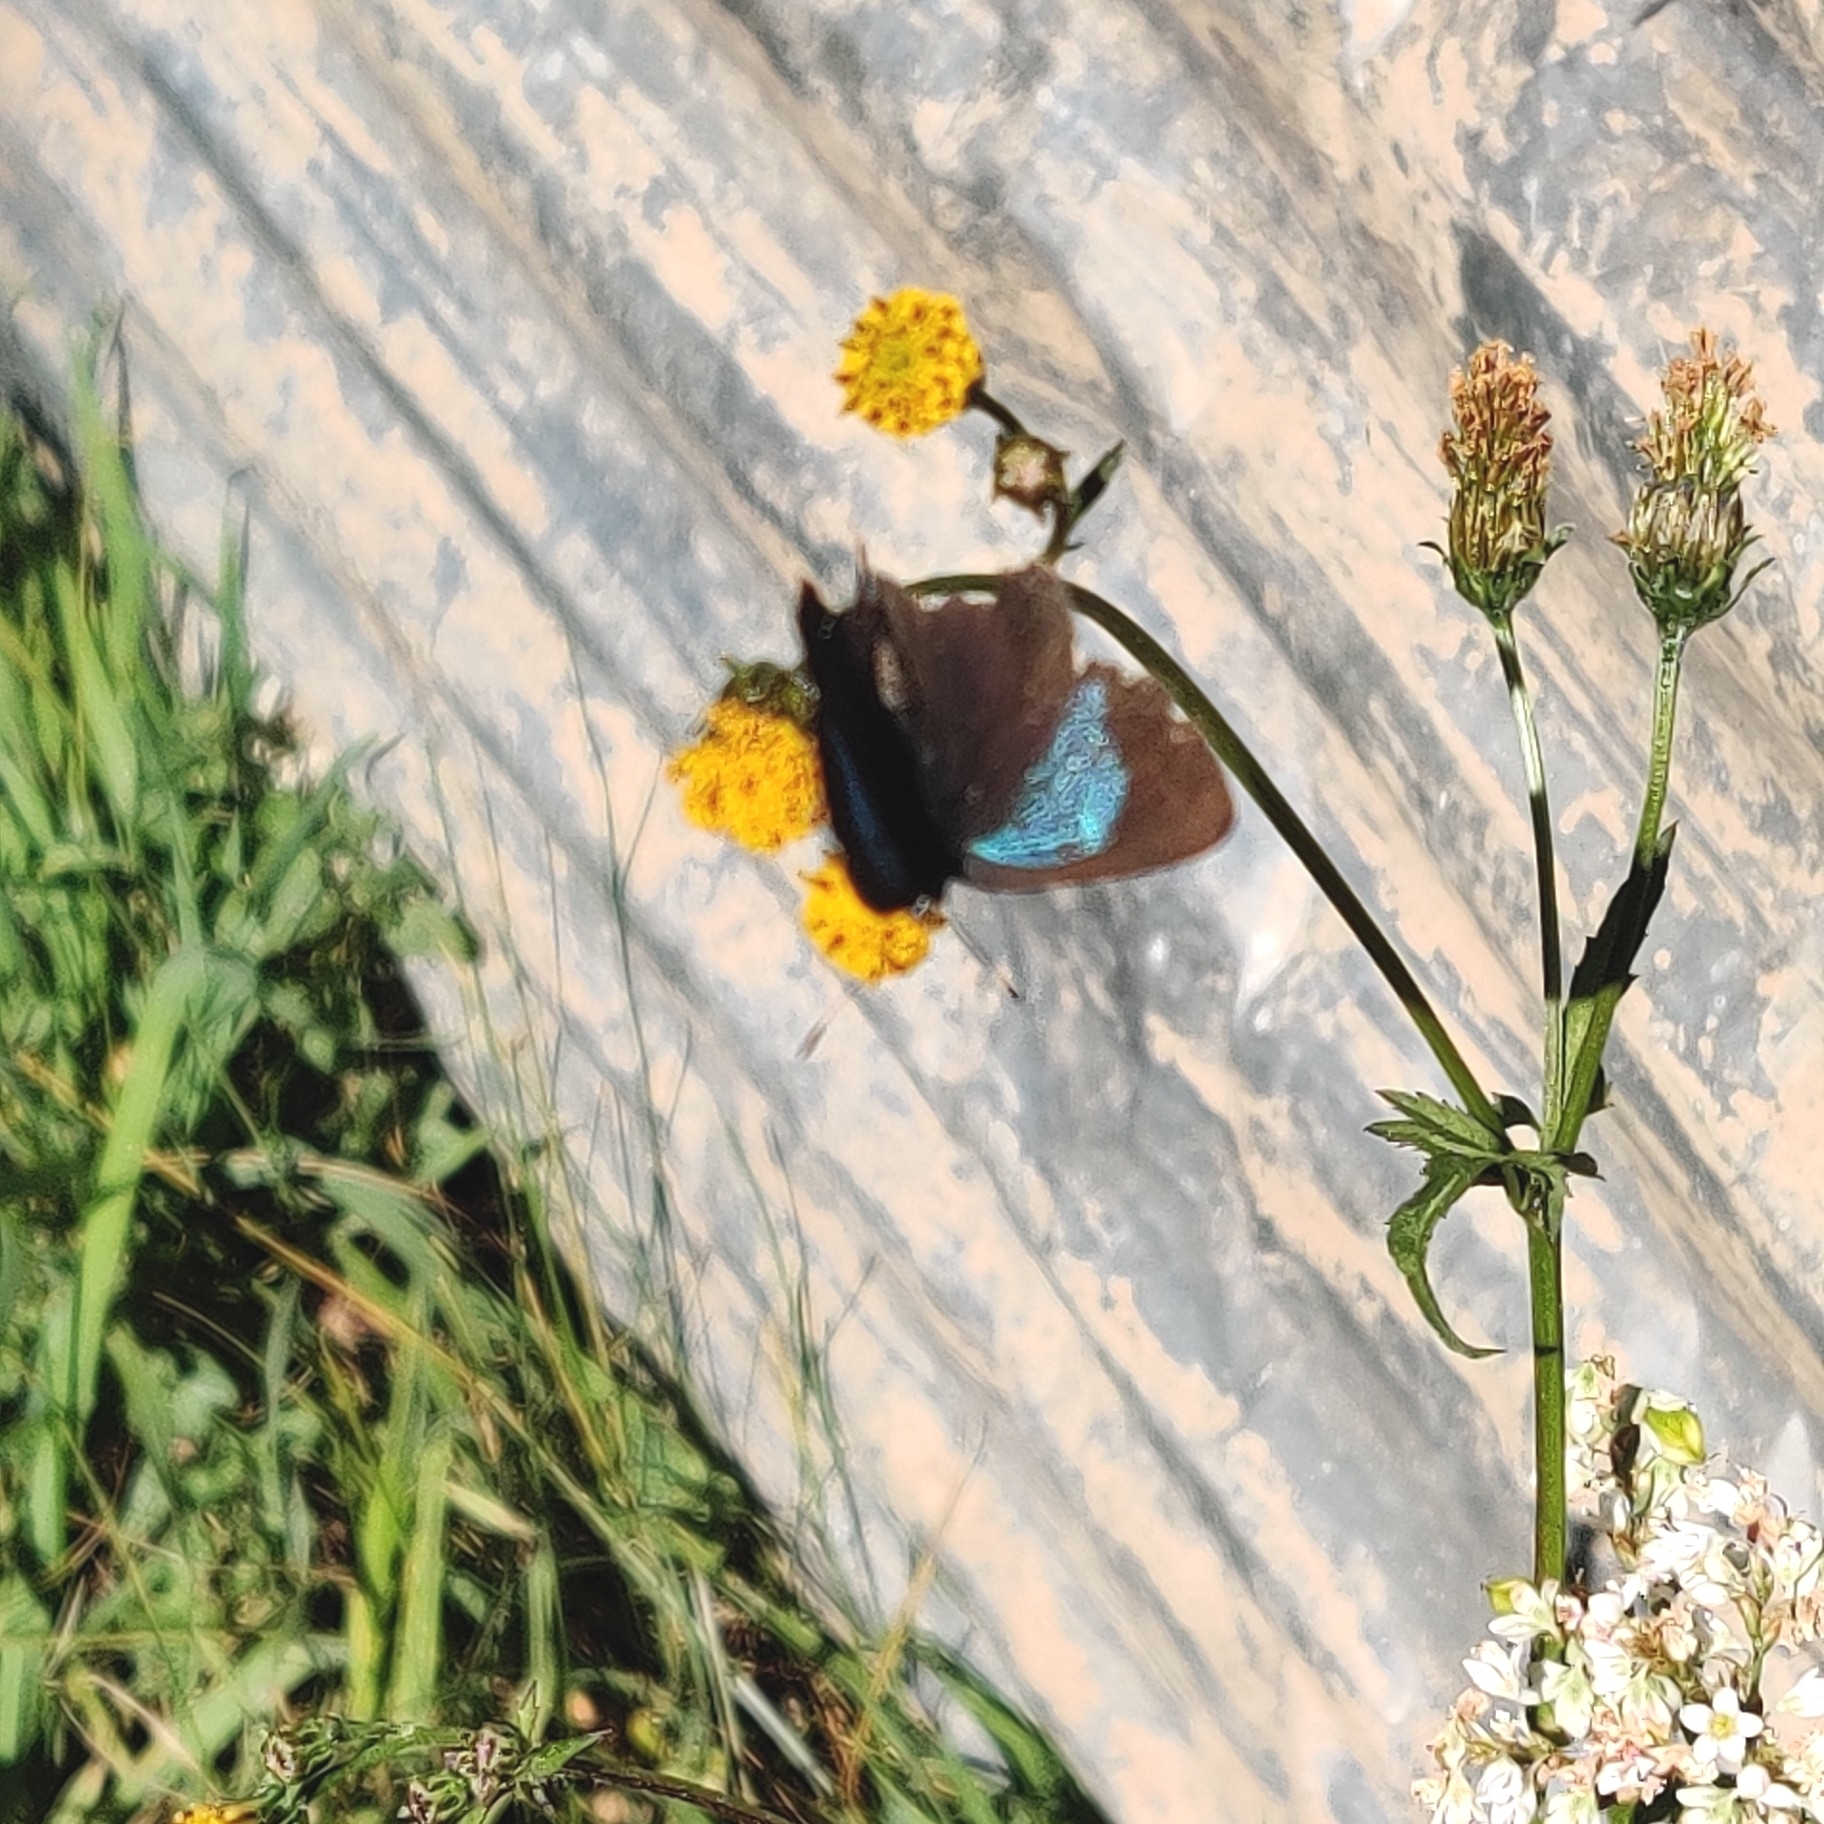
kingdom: Animalia
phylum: Arthropoda
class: Insecta
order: Lepidoptera
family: Lycaenidae
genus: Heliophorus
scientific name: Heliophorus
